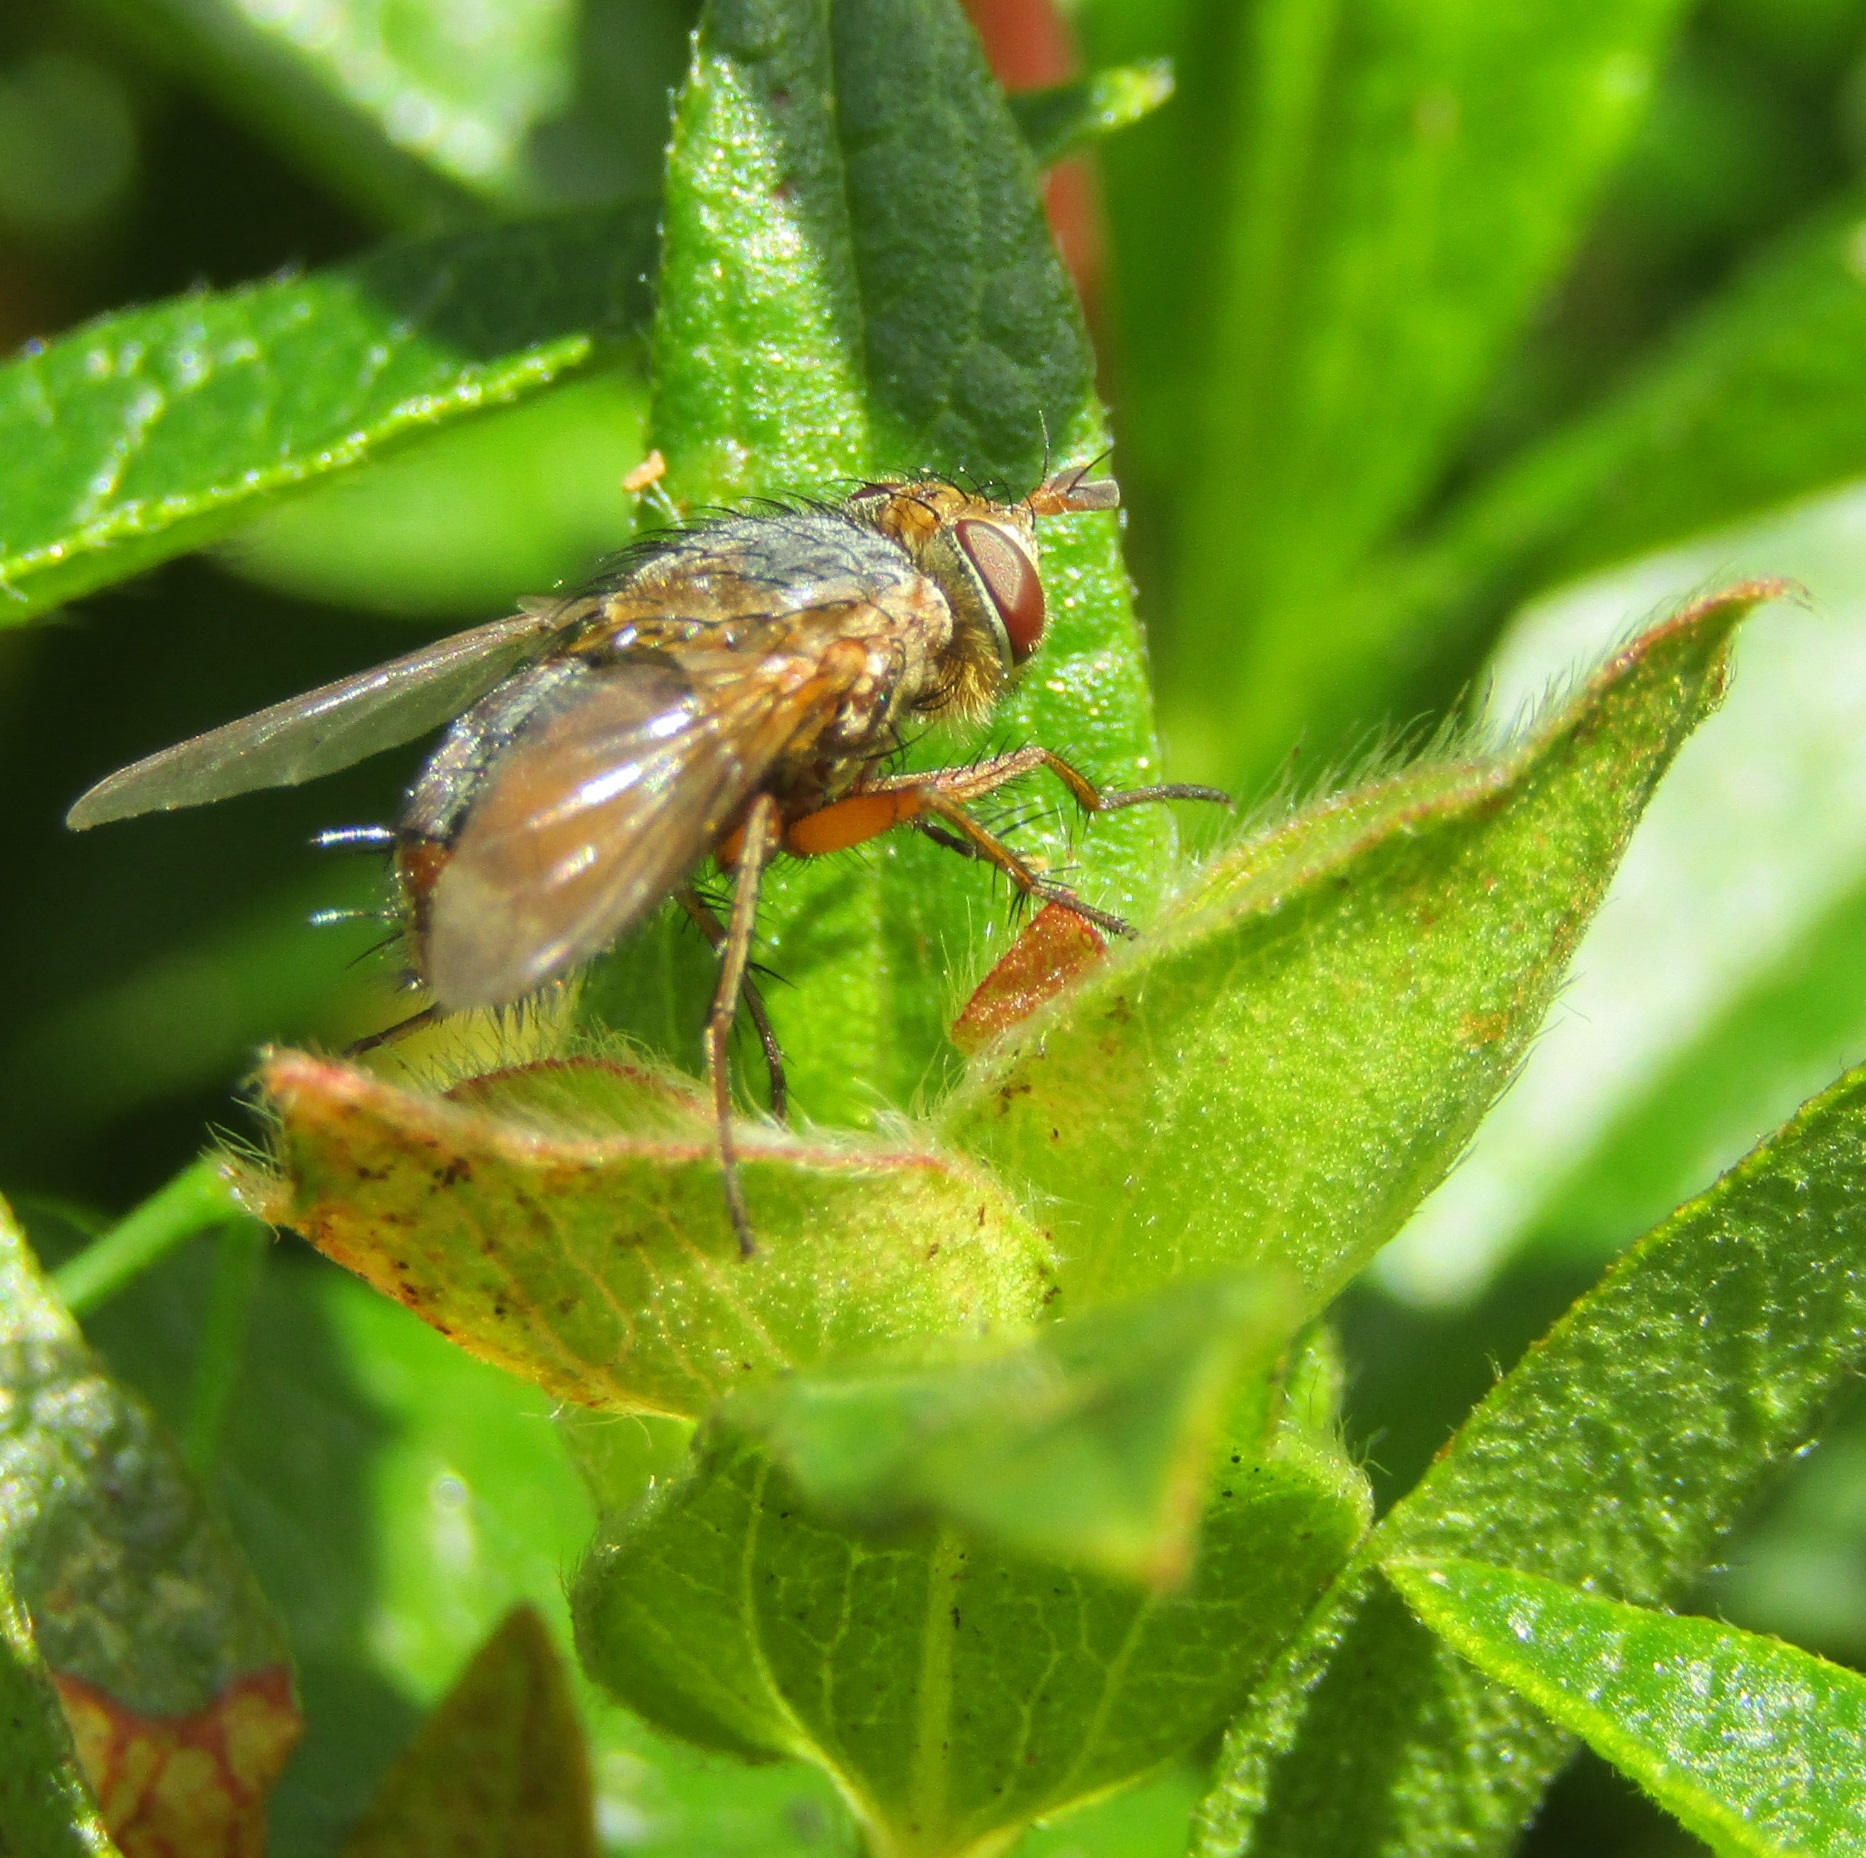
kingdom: Animalia
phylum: Arthropoda
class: Insecta
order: Diptera
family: Tachinidae
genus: Chaetophthalmus
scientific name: Chaetophthalmus bicolor
